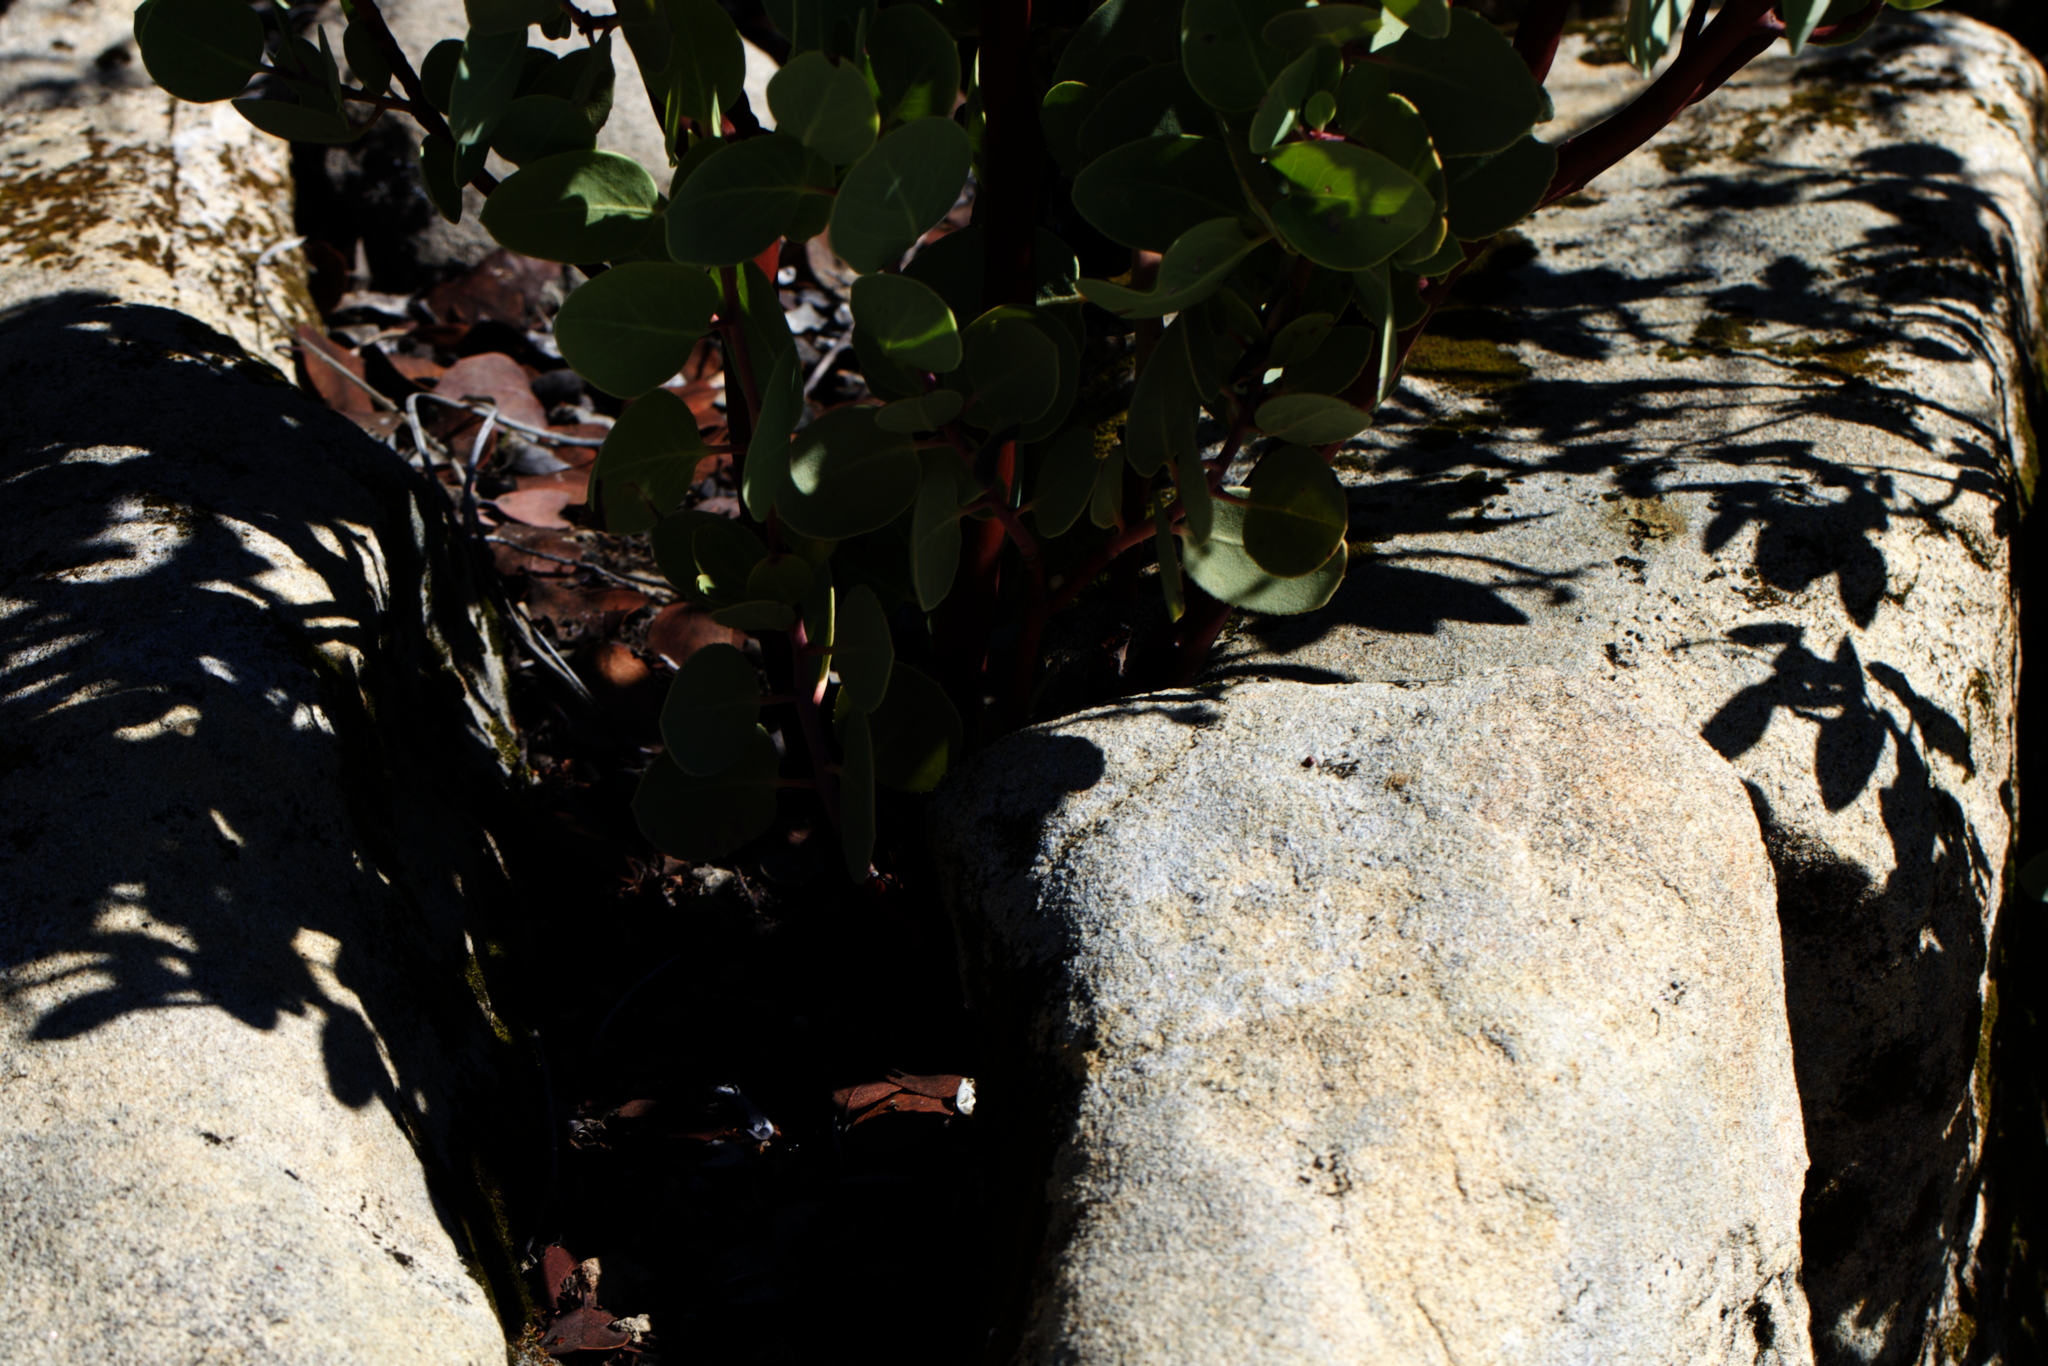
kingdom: Plantae
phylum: Tracheophyta
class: Magnoliopsida
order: Ericales
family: Ericaceae
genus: Arctostaphylos
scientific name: Arctostaphylos glauca
